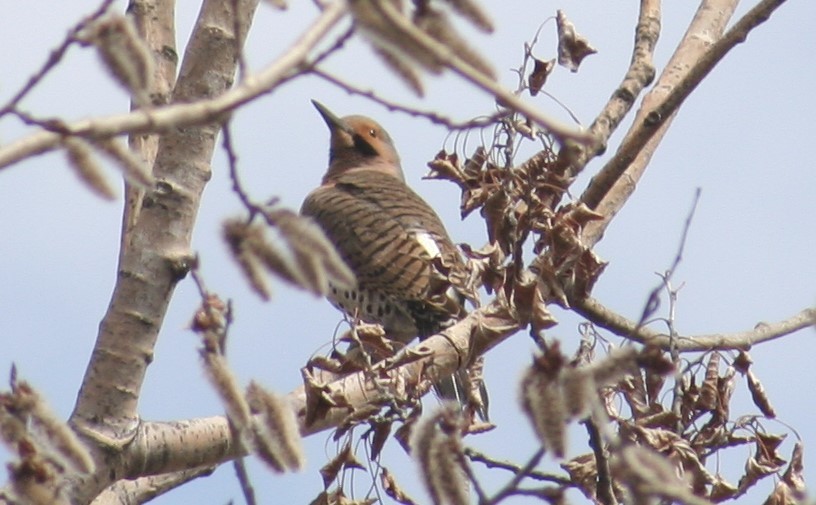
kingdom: Animalia
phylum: Chordata
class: Aves
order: Piciformes
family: Picidae
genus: Colaptes
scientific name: Colaptes auratus
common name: Northern flicker
